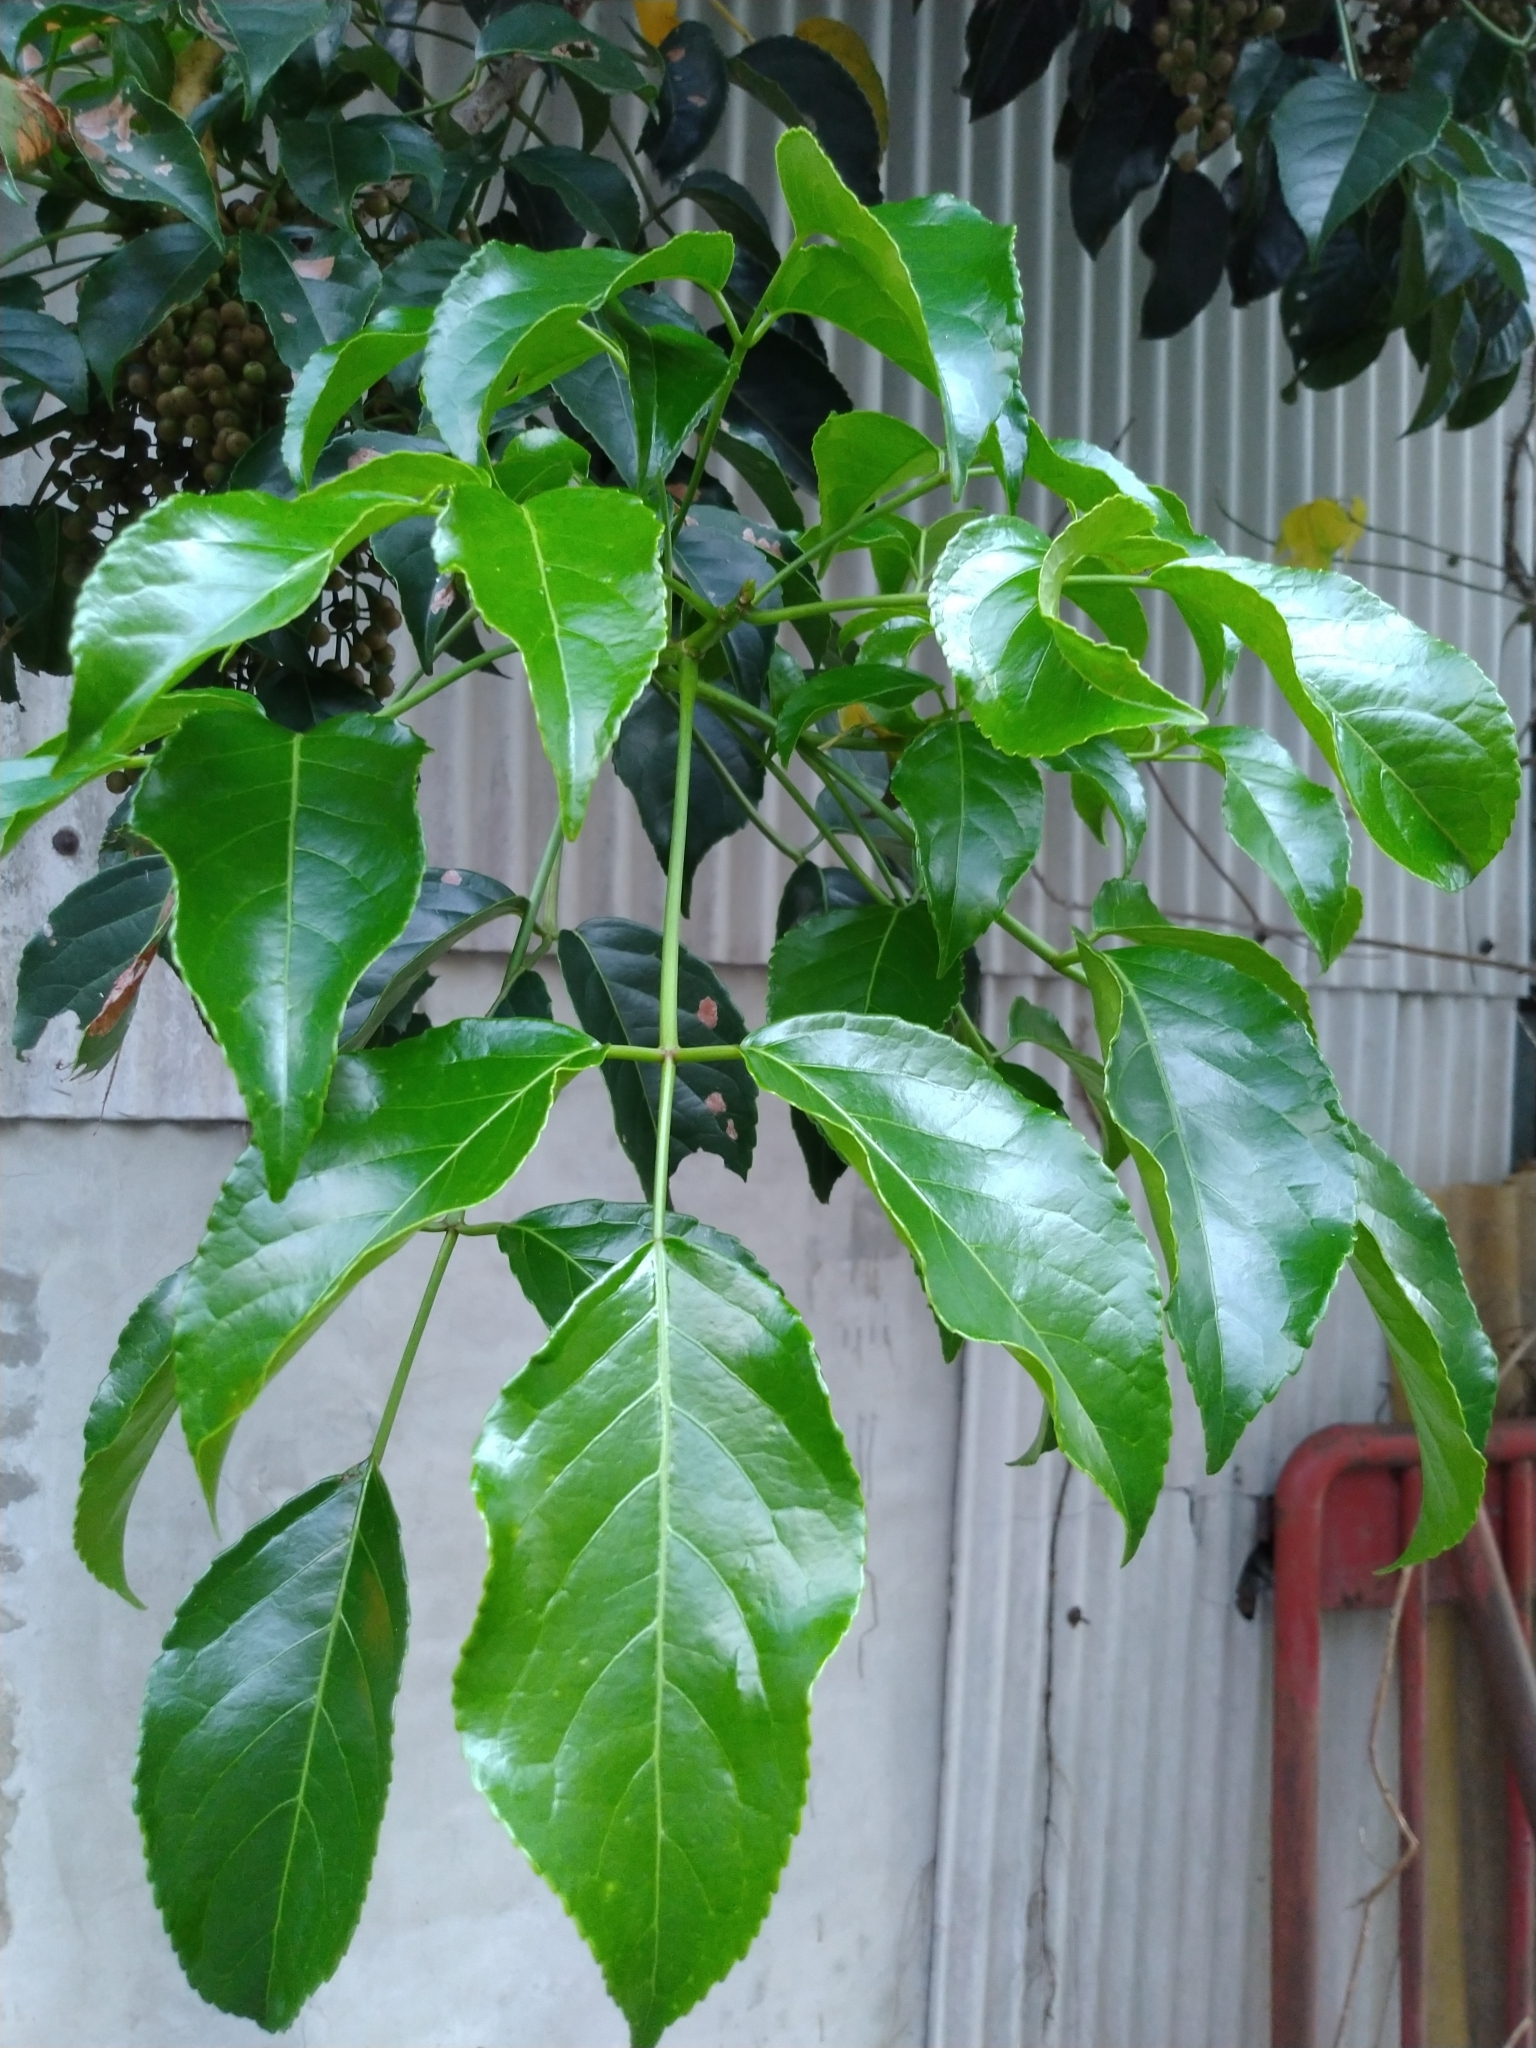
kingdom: Plantae
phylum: Tracheophyta
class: Magnoliopsida
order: Malpighiales
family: Phyllanthaceae
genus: Bischofia
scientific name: Bischofia javanica
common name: Javanese bishopwood
